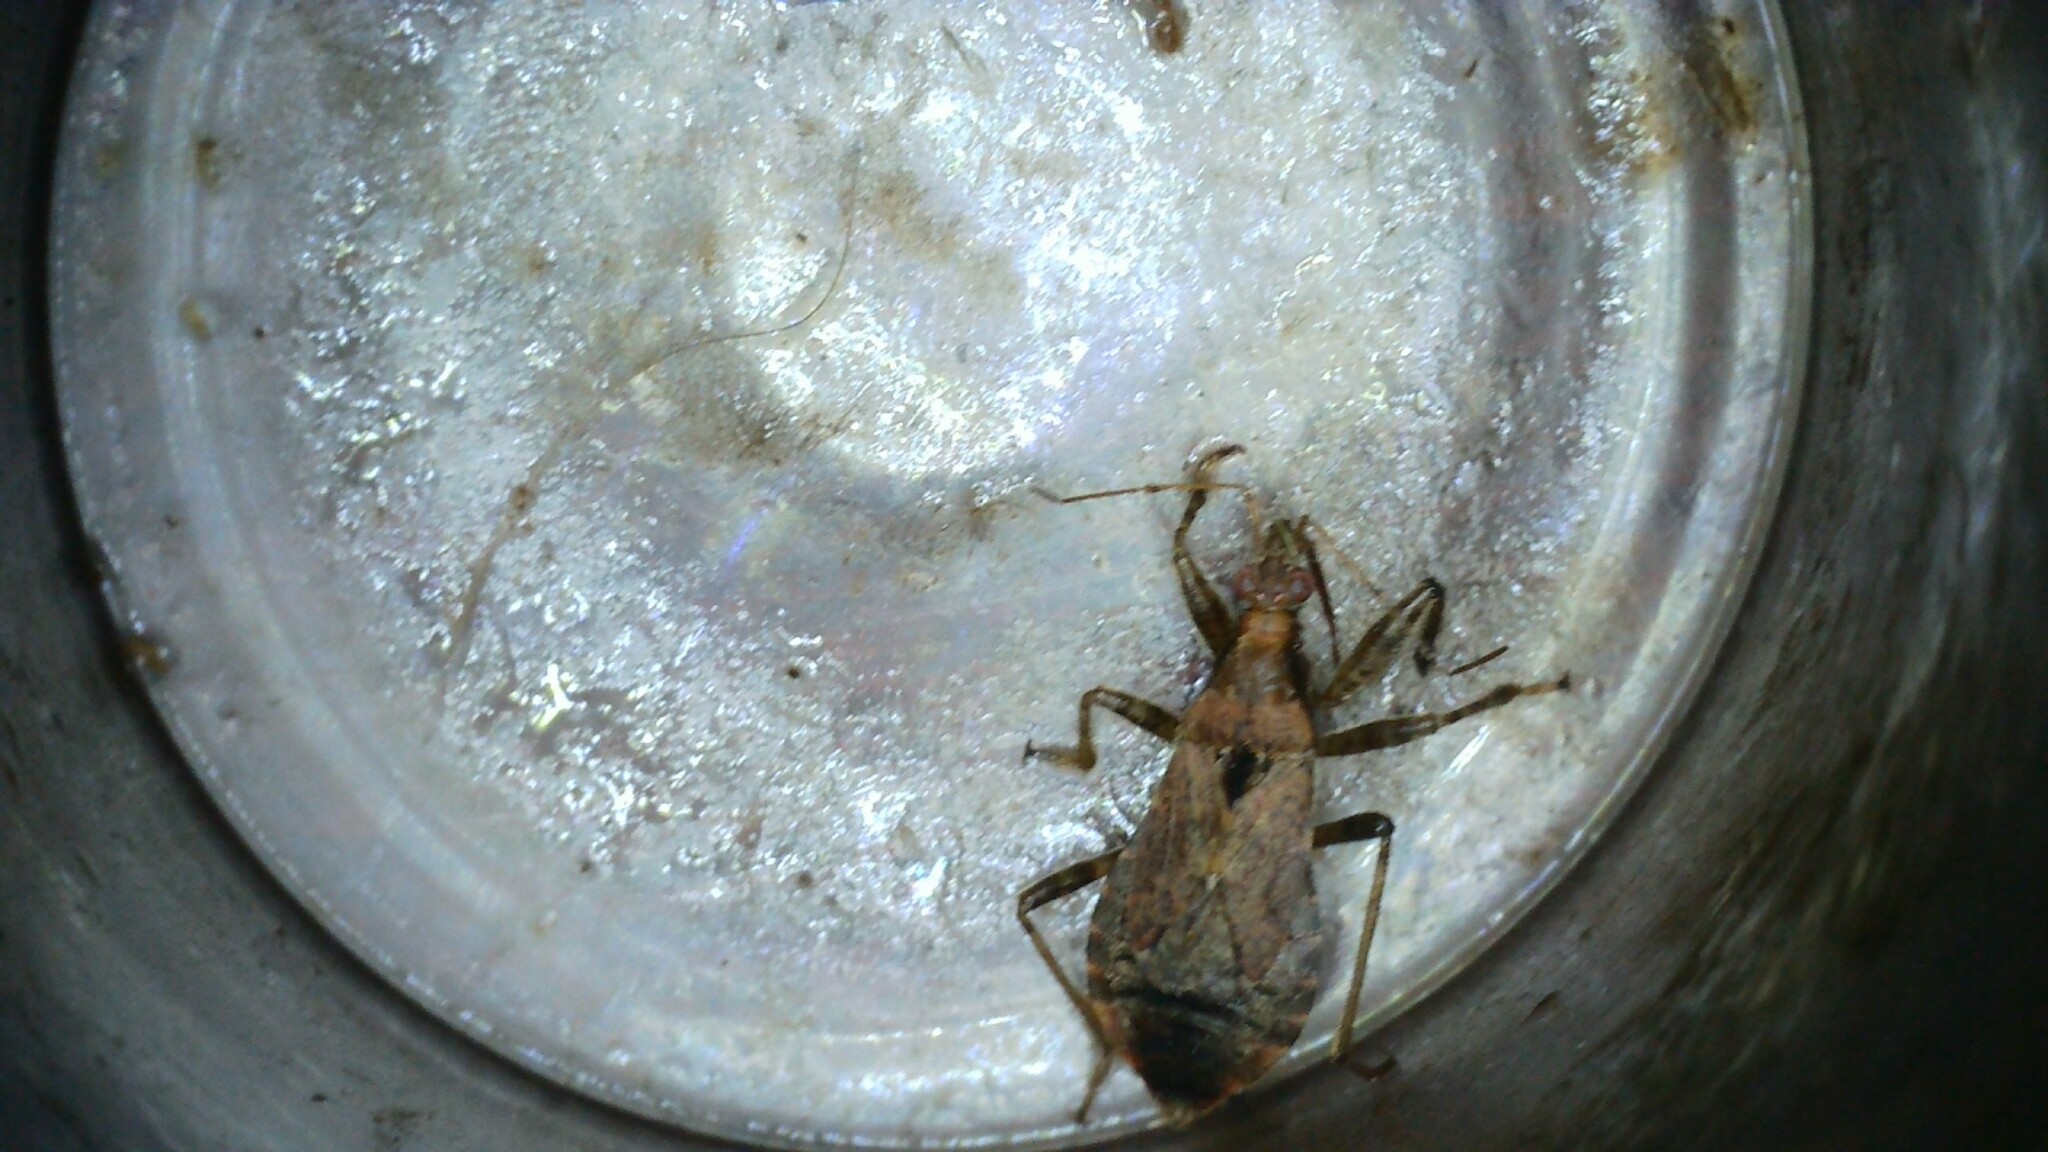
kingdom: Animalia
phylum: Arthropoda
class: Insecta
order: Hemiptera
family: Nabidae
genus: Himacerus
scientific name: Himacerus mirmicoides
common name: Ant damsel bug
